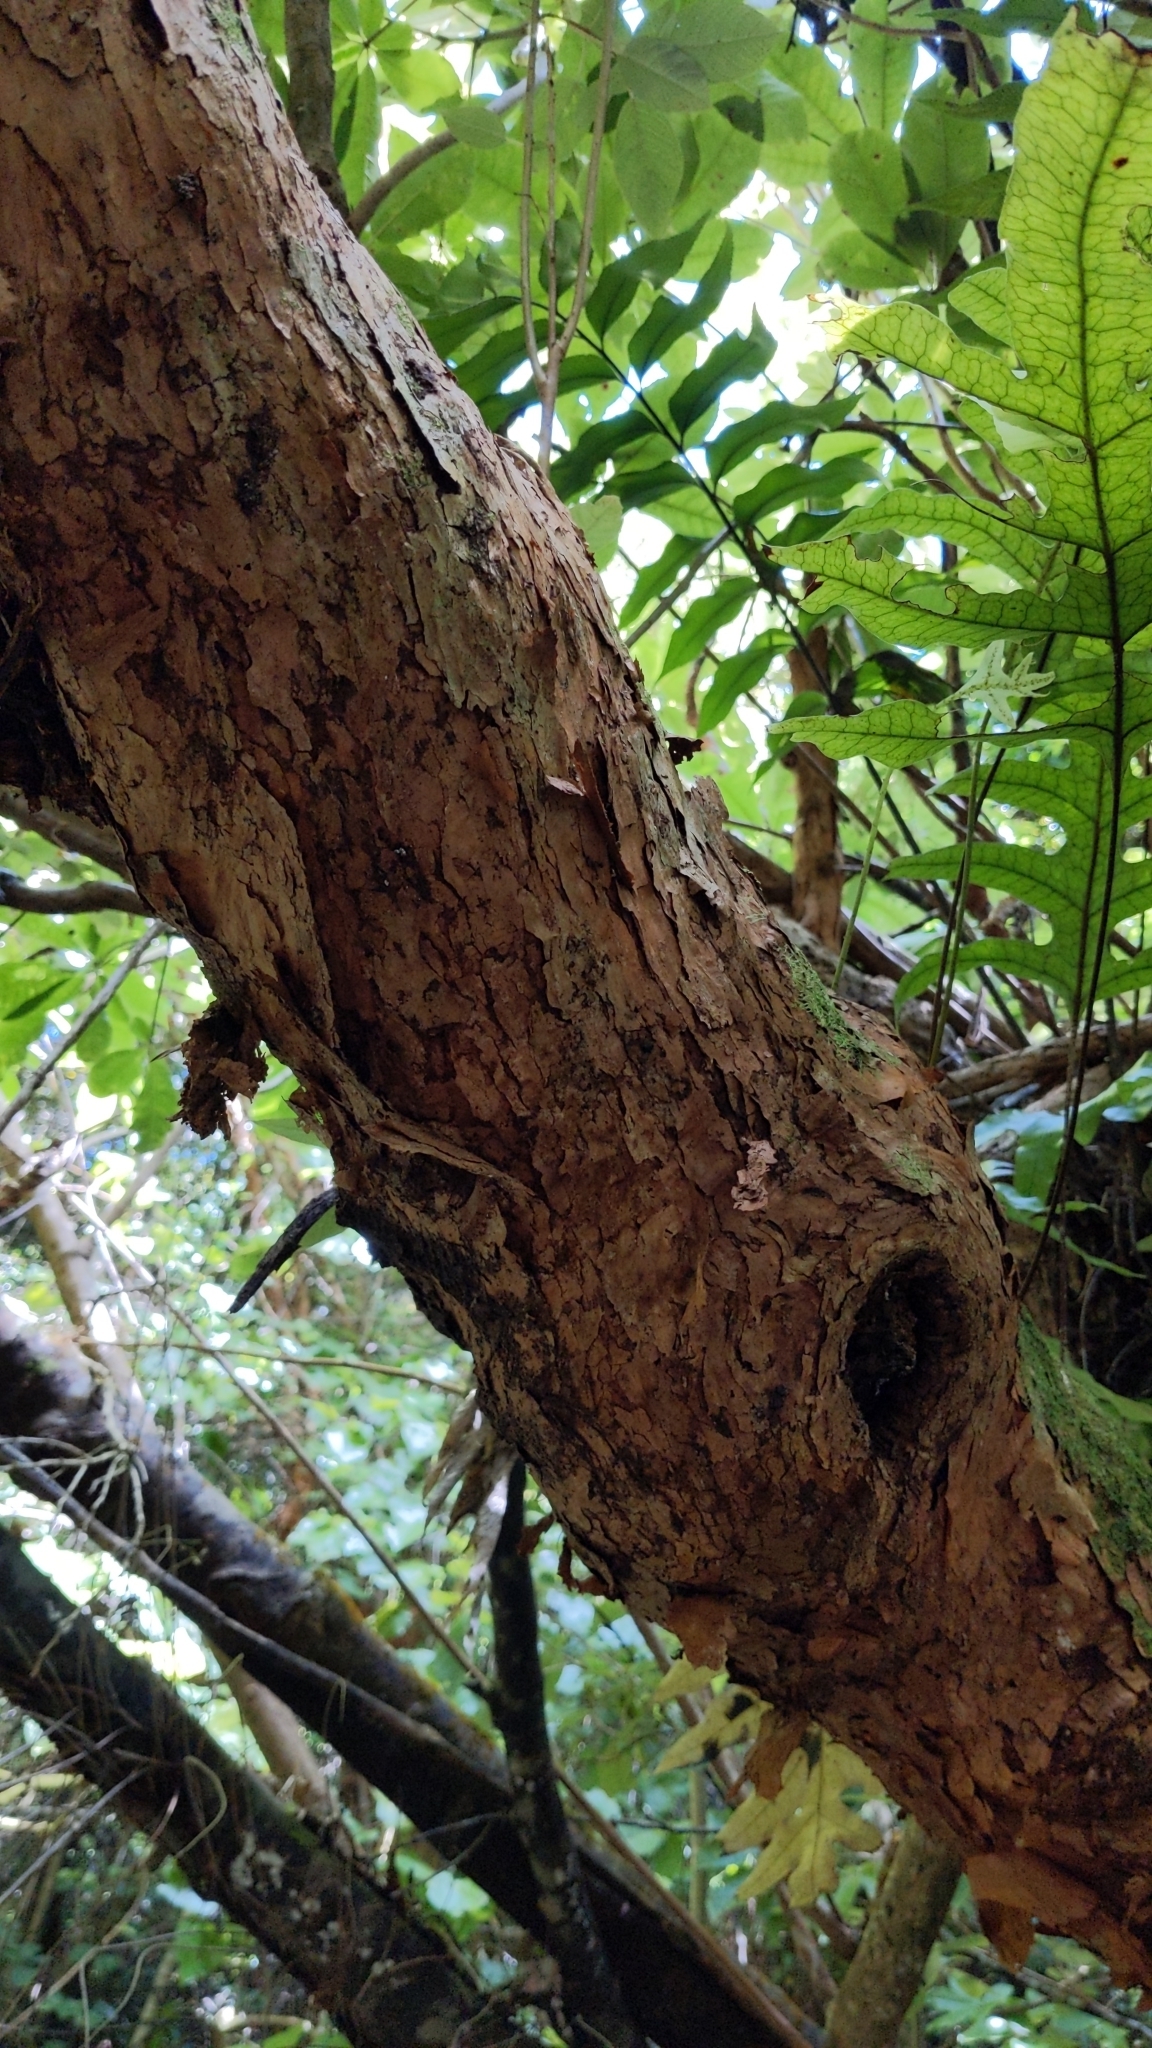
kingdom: Plantae
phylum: Tracheophyta
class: Magnoliopsida
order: Myrtales
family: Onagraceae
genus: Fuchsia
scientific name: Fuchsia excorticata
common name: Tree fuchsia
